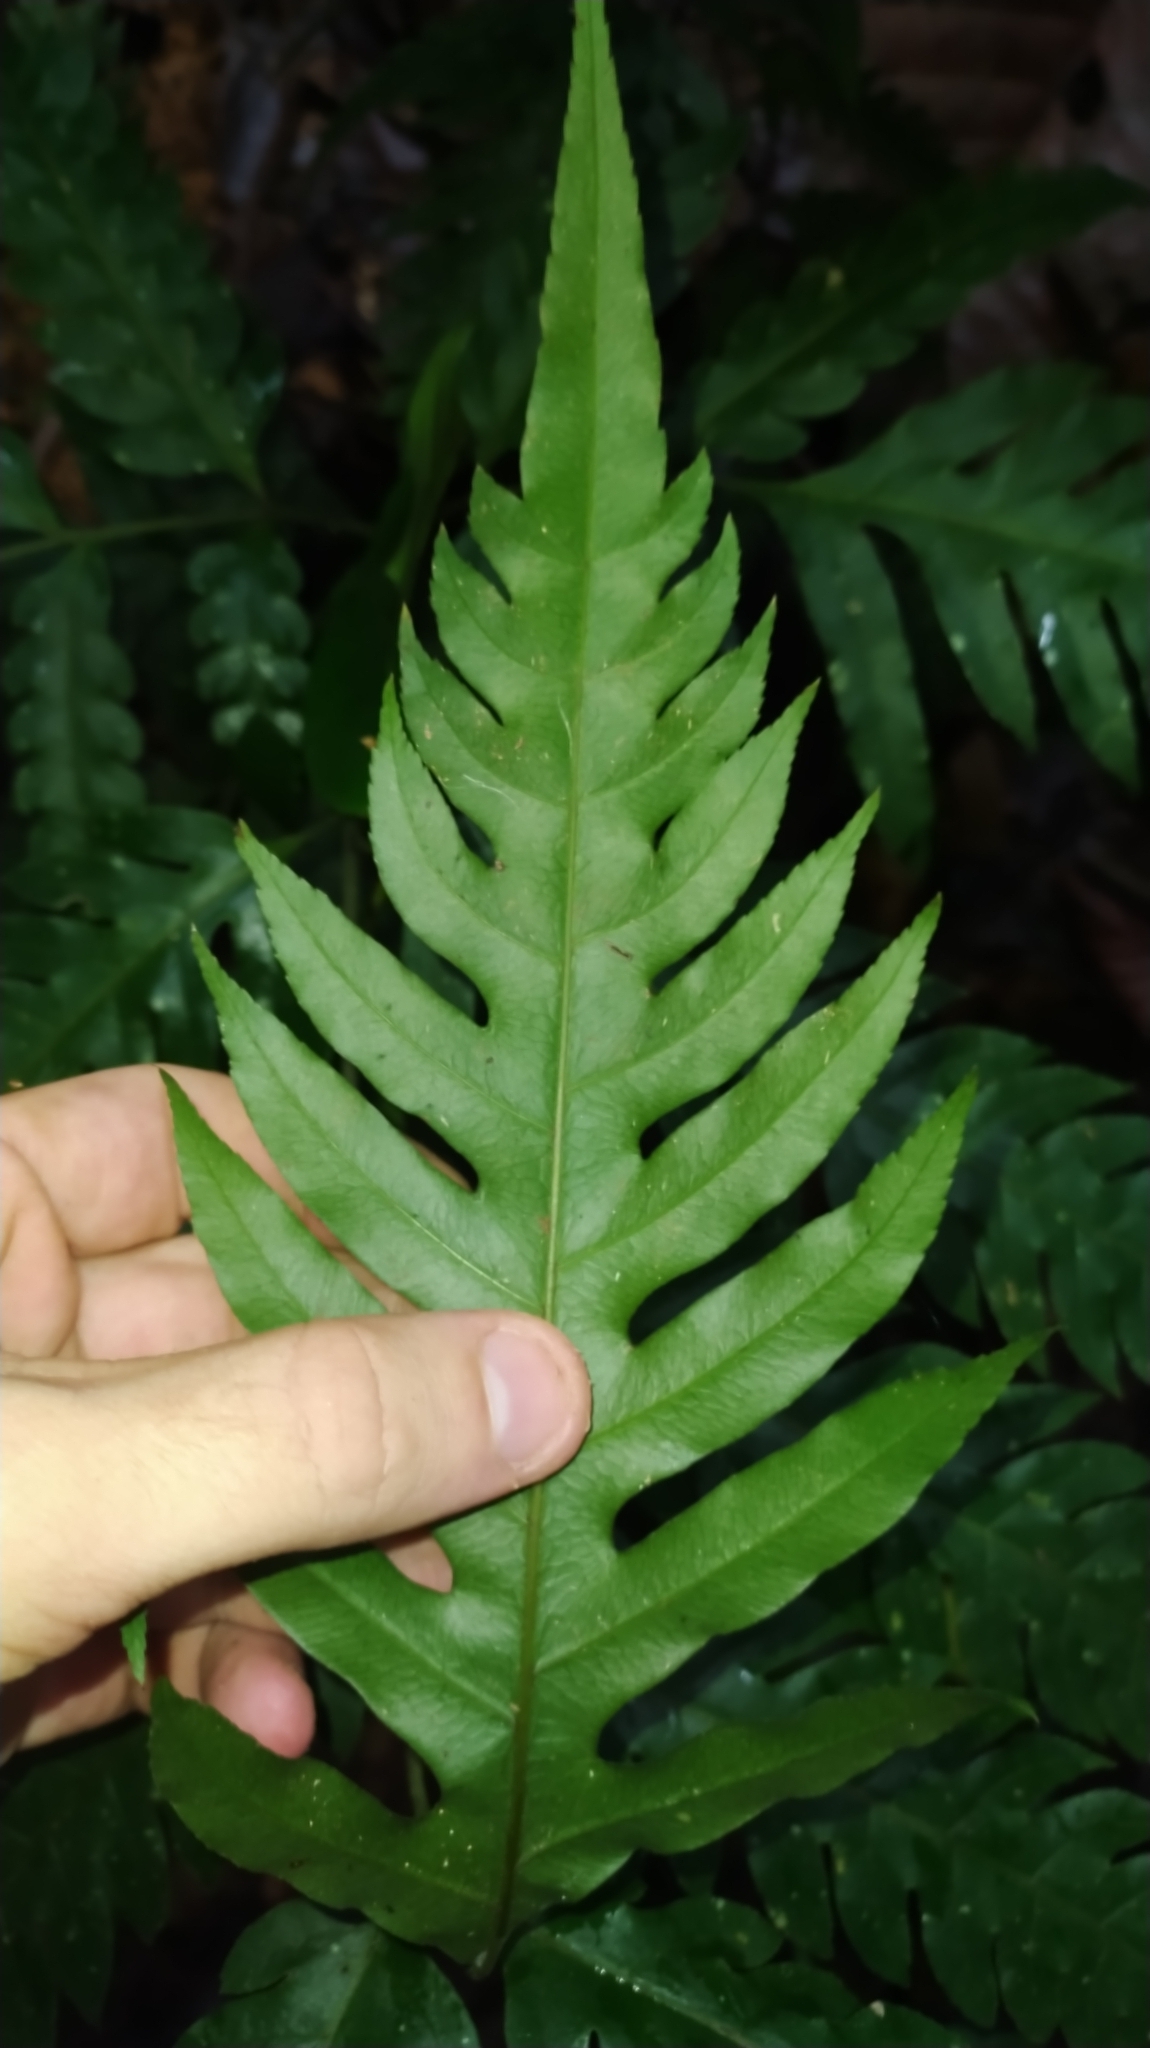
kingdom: Plantae
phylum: Tracheophyta
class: Polypodiopsida
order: Polypodiales
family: Pteridaceae
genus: Pteris
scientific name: Pteris altissima
